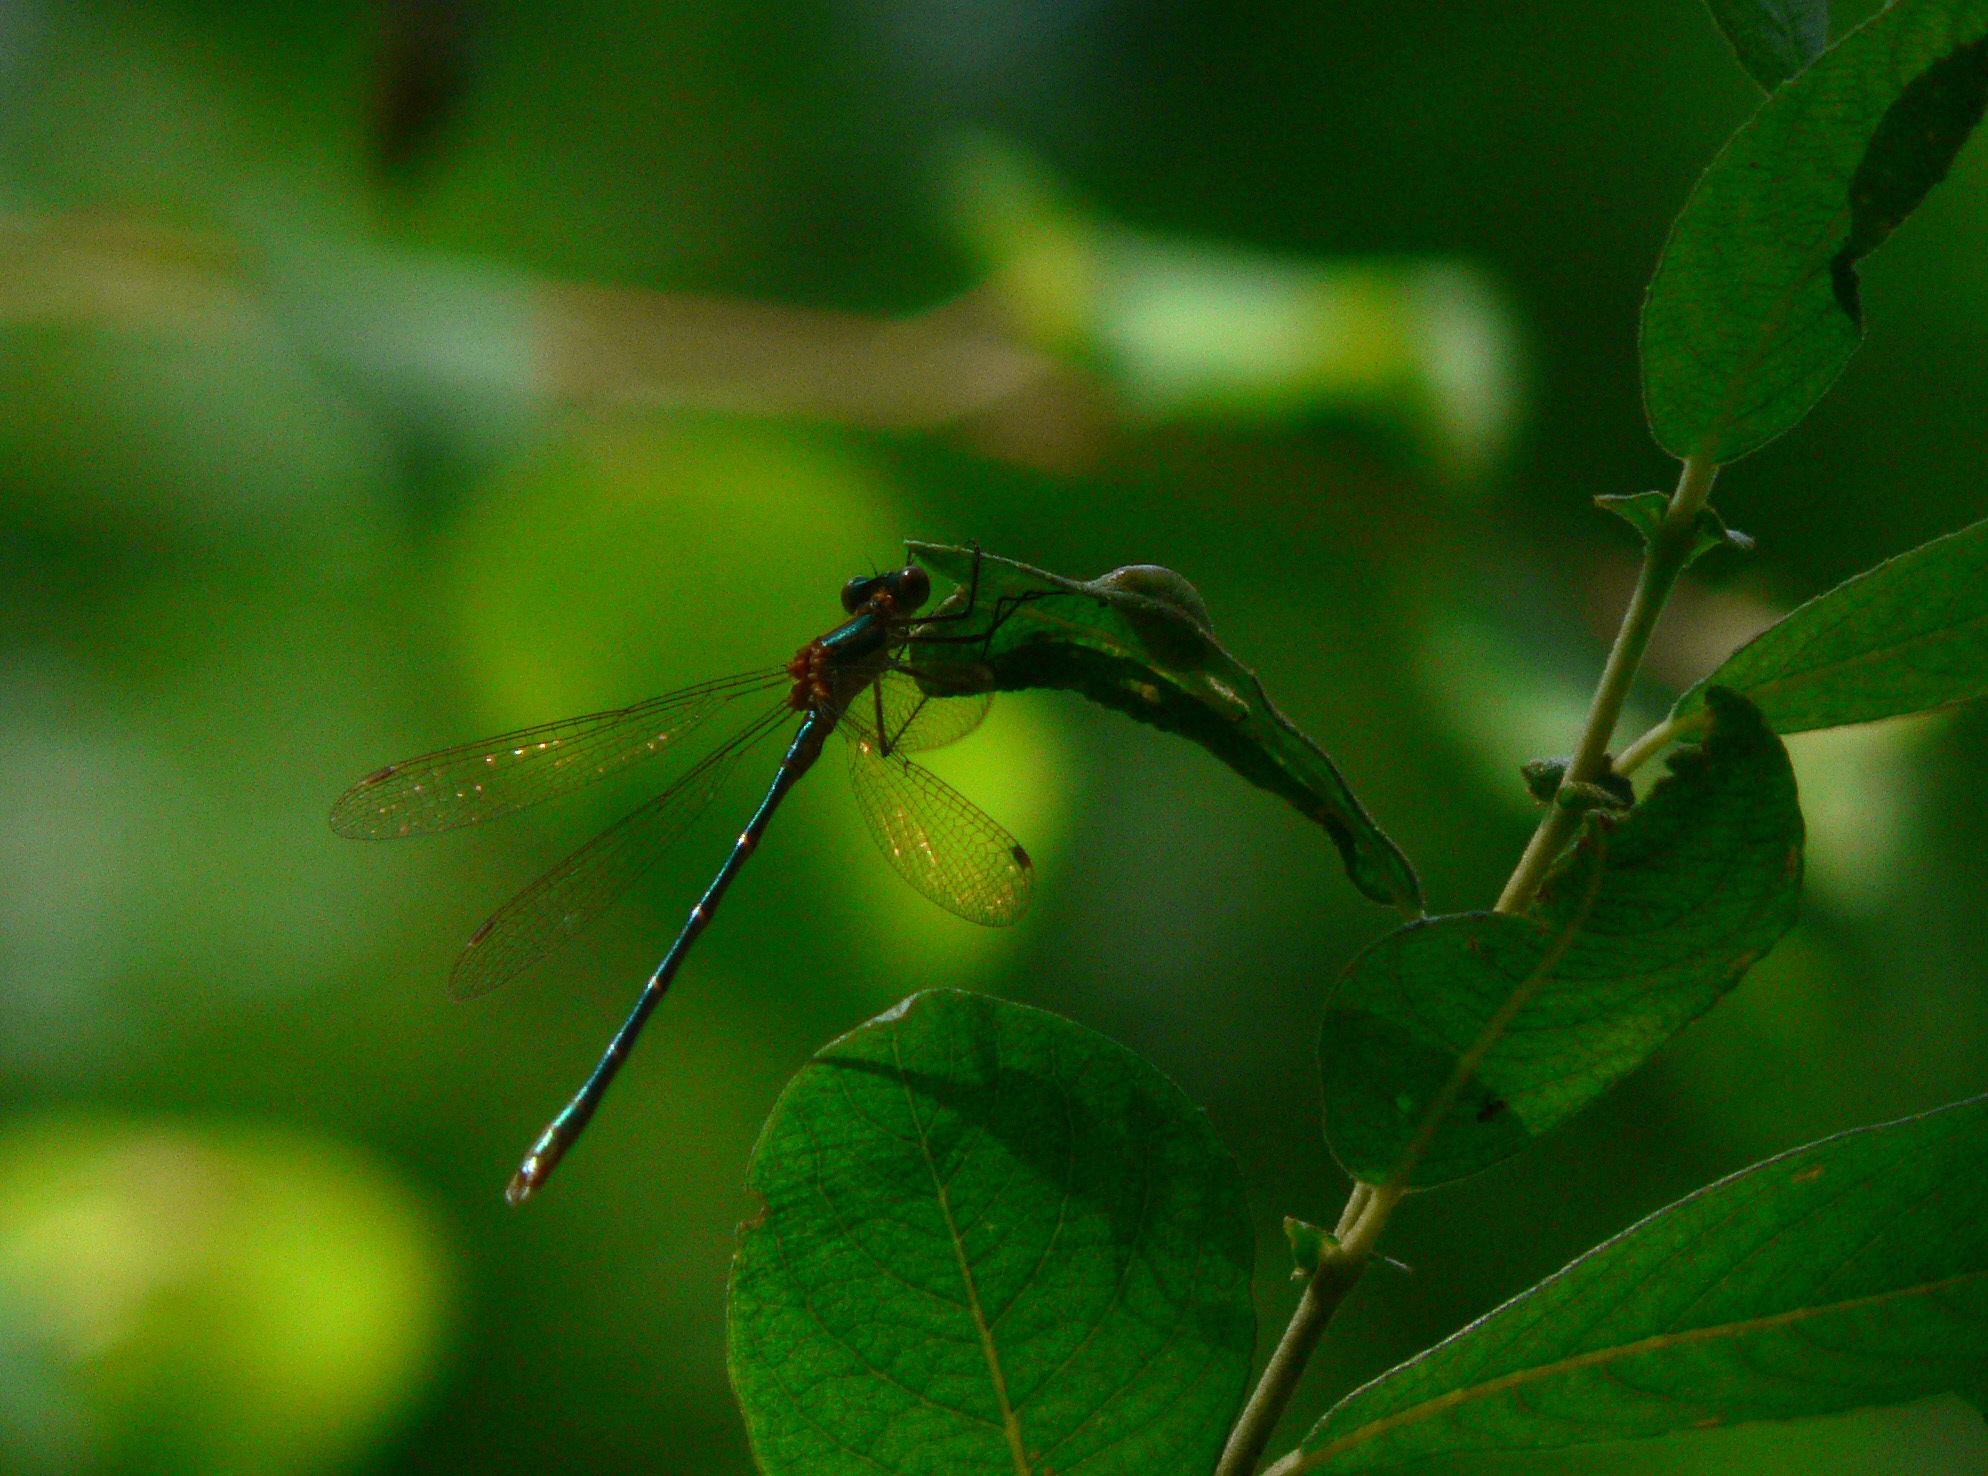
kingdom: Animalia
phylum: Arthropoda
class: Insecta
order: Odonata
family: Lestidae
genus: Lestes
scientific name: Lestes sponsa
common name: Common spreadwing
